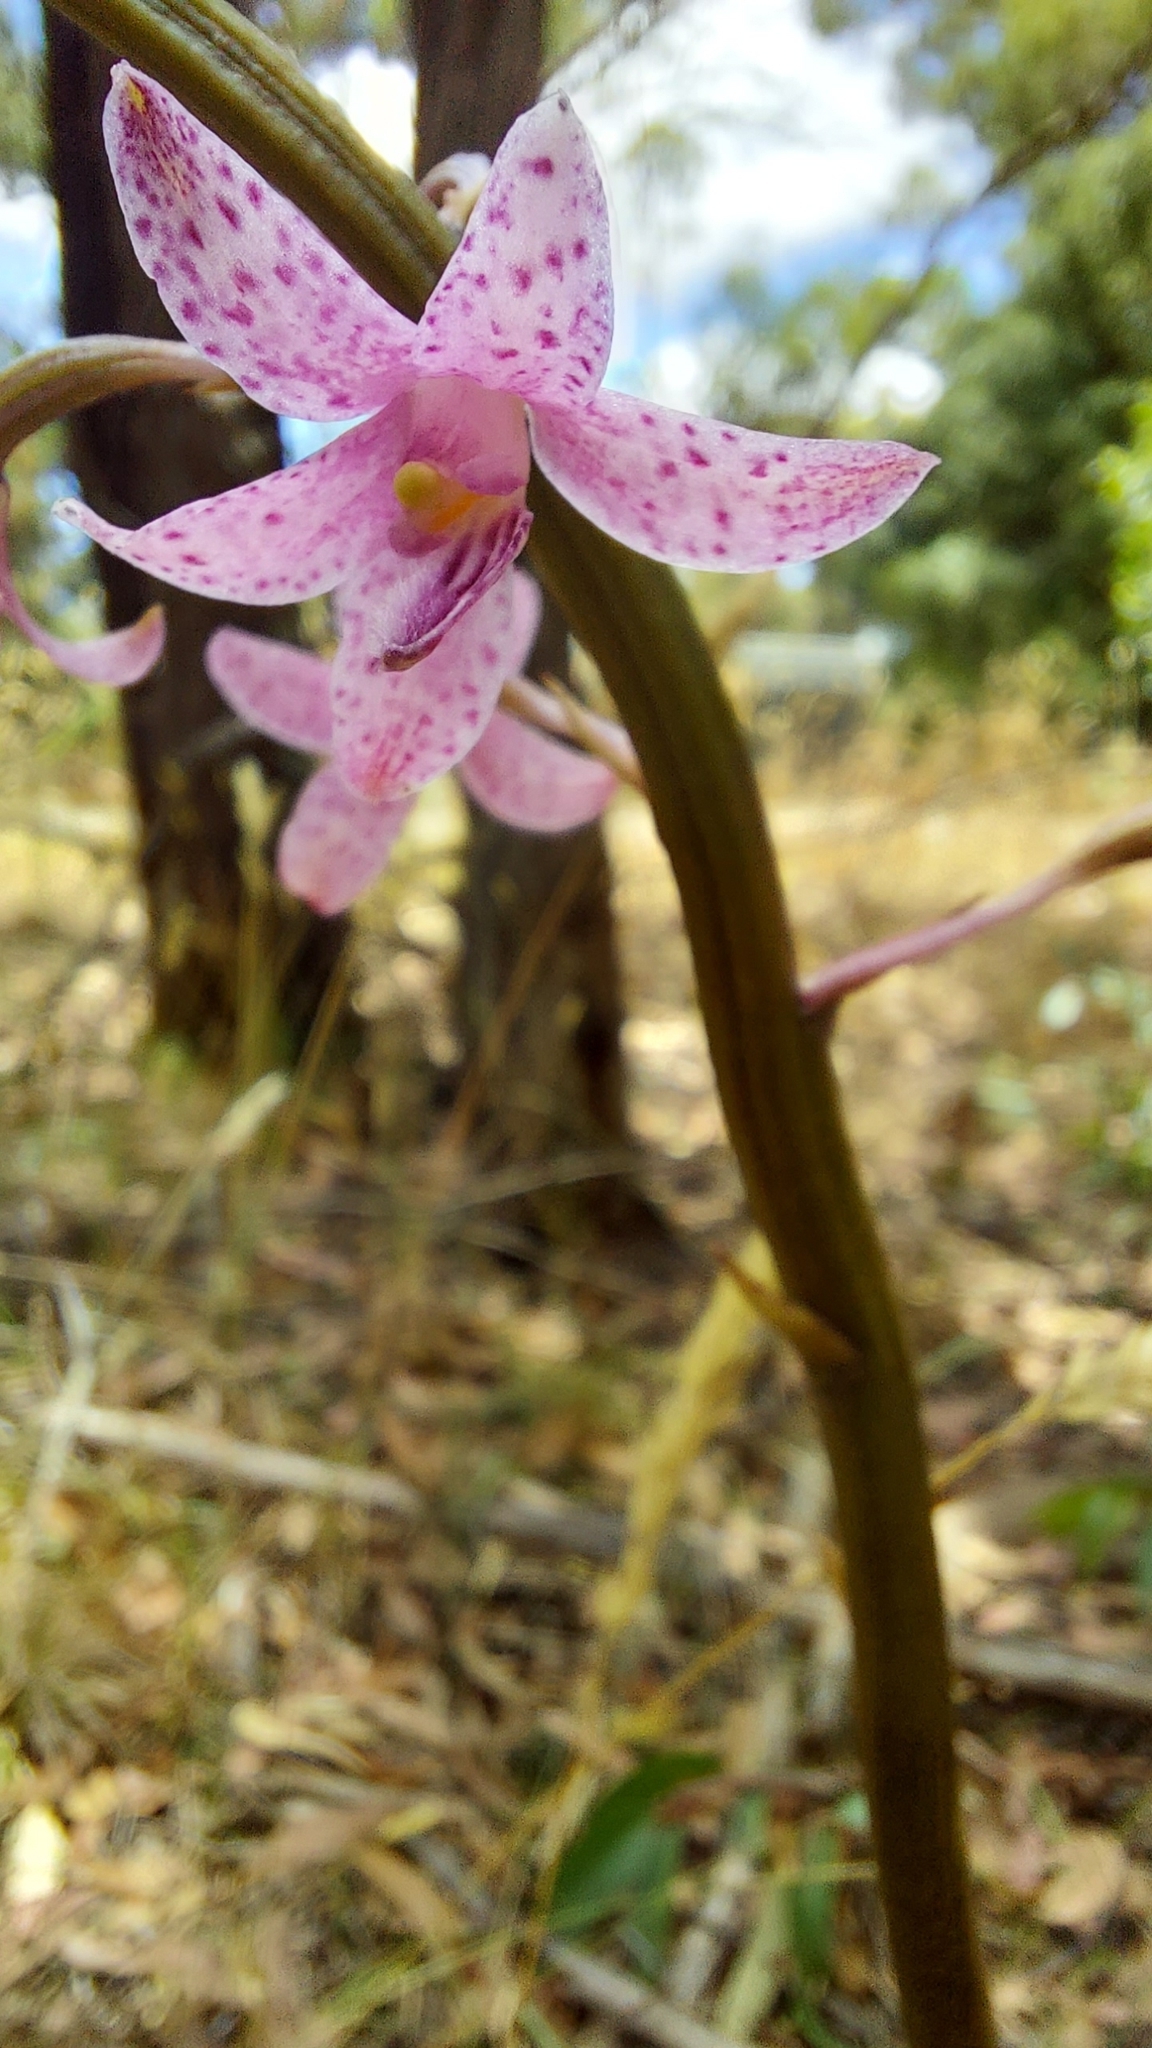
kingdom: Plantae
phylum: Tracheophyta
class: Liliopsida
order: Asparagales
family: Orchidaceae
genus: Dipodium
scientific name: Dipodium roseum
